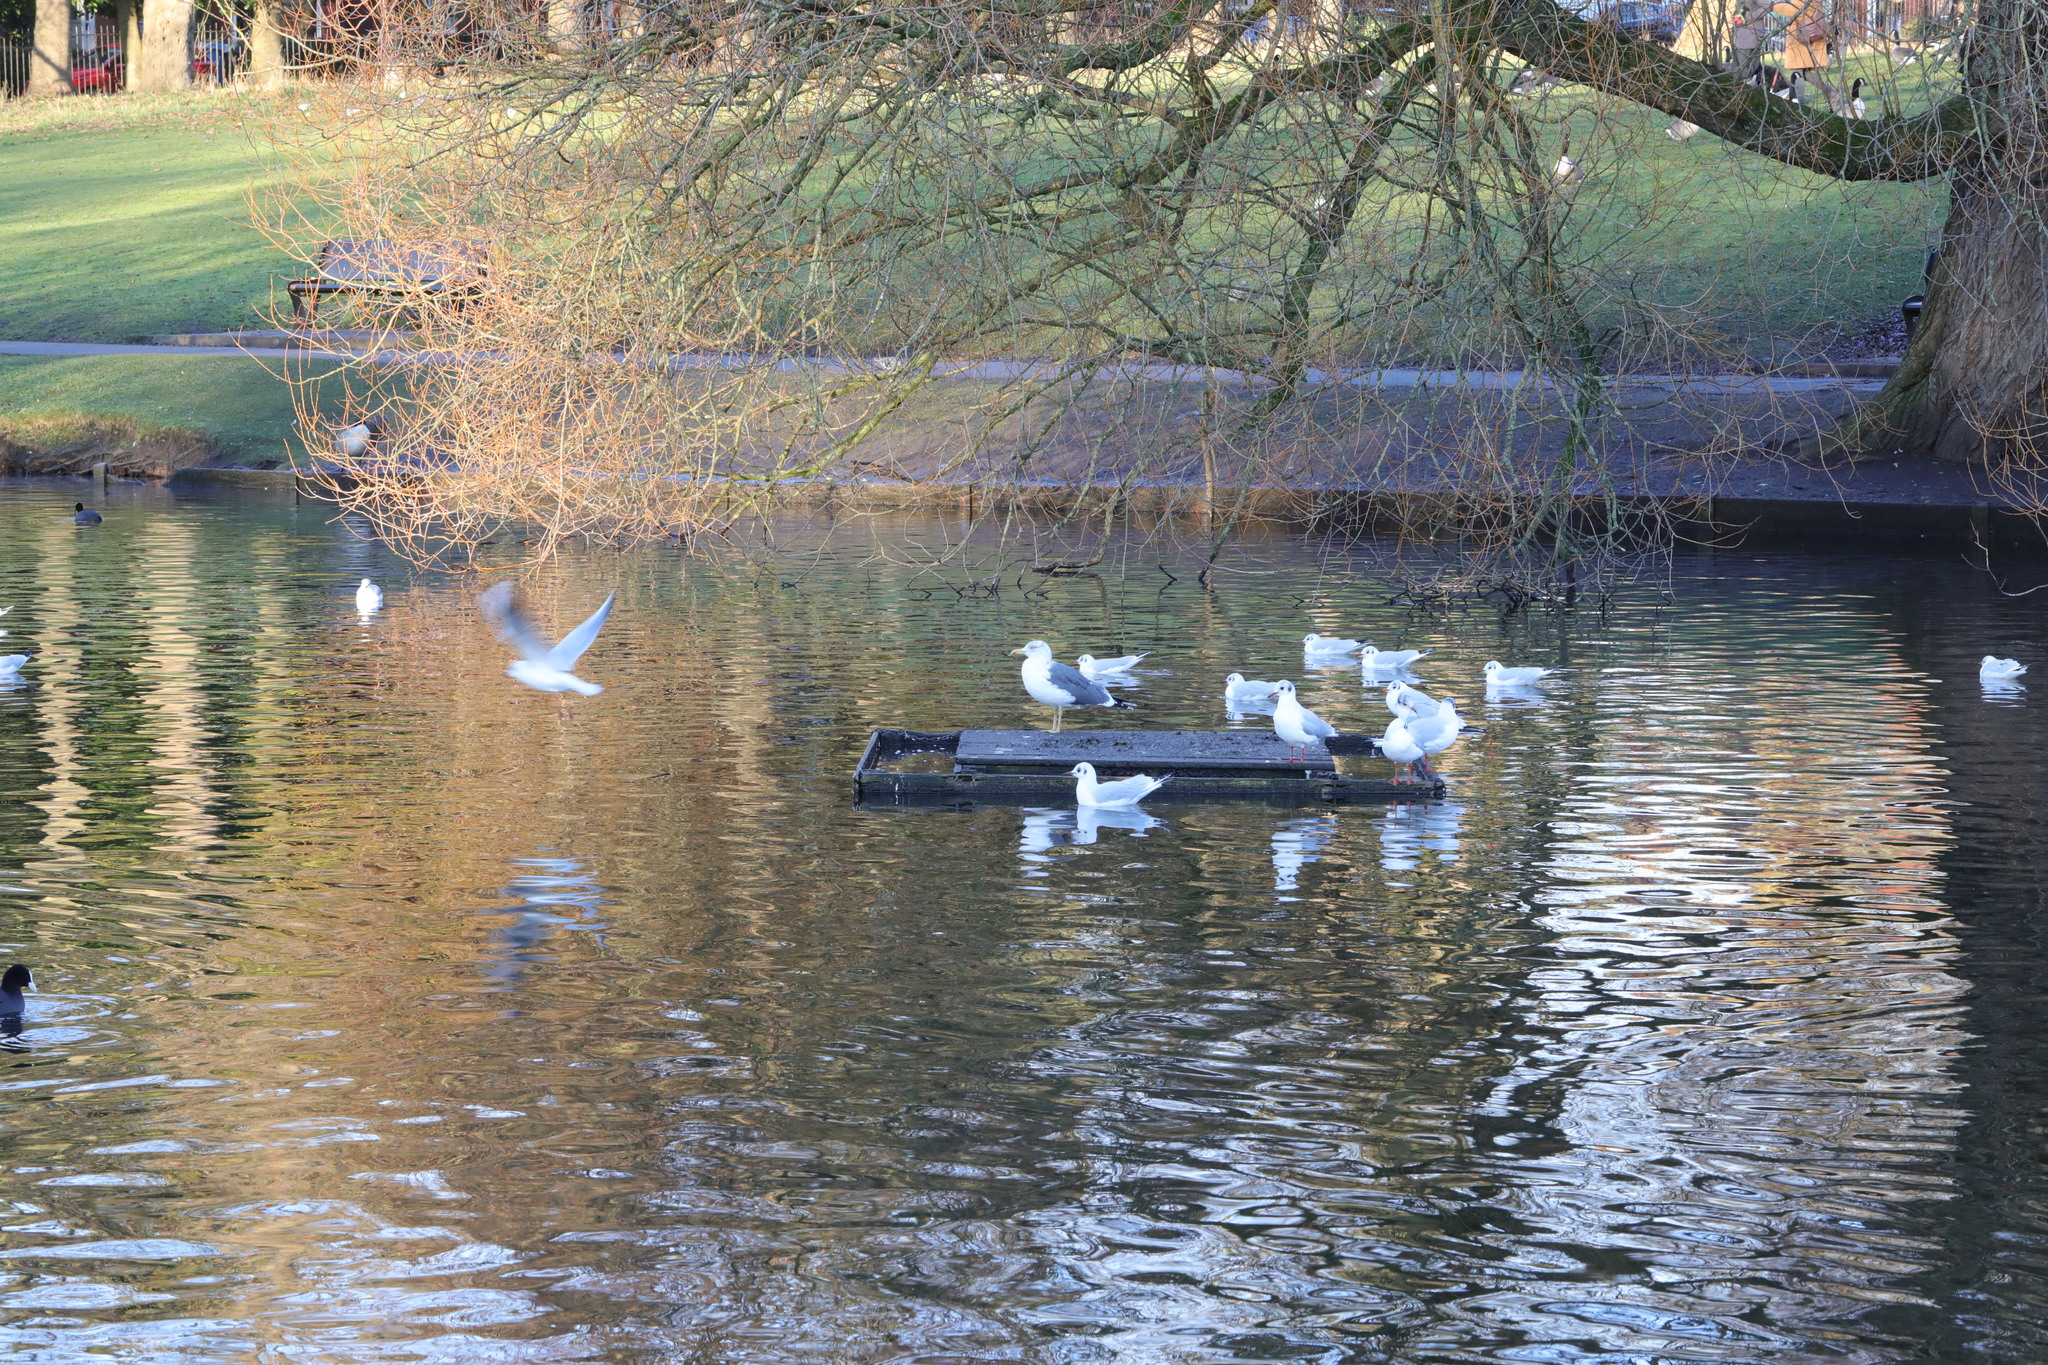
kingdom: Animalia
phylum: Chordata
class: Aves
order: Charadriiformes
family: Laridae
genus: Chroicocephalus
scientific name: Chroicocephalus ridibundus
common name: Black-headed gull
